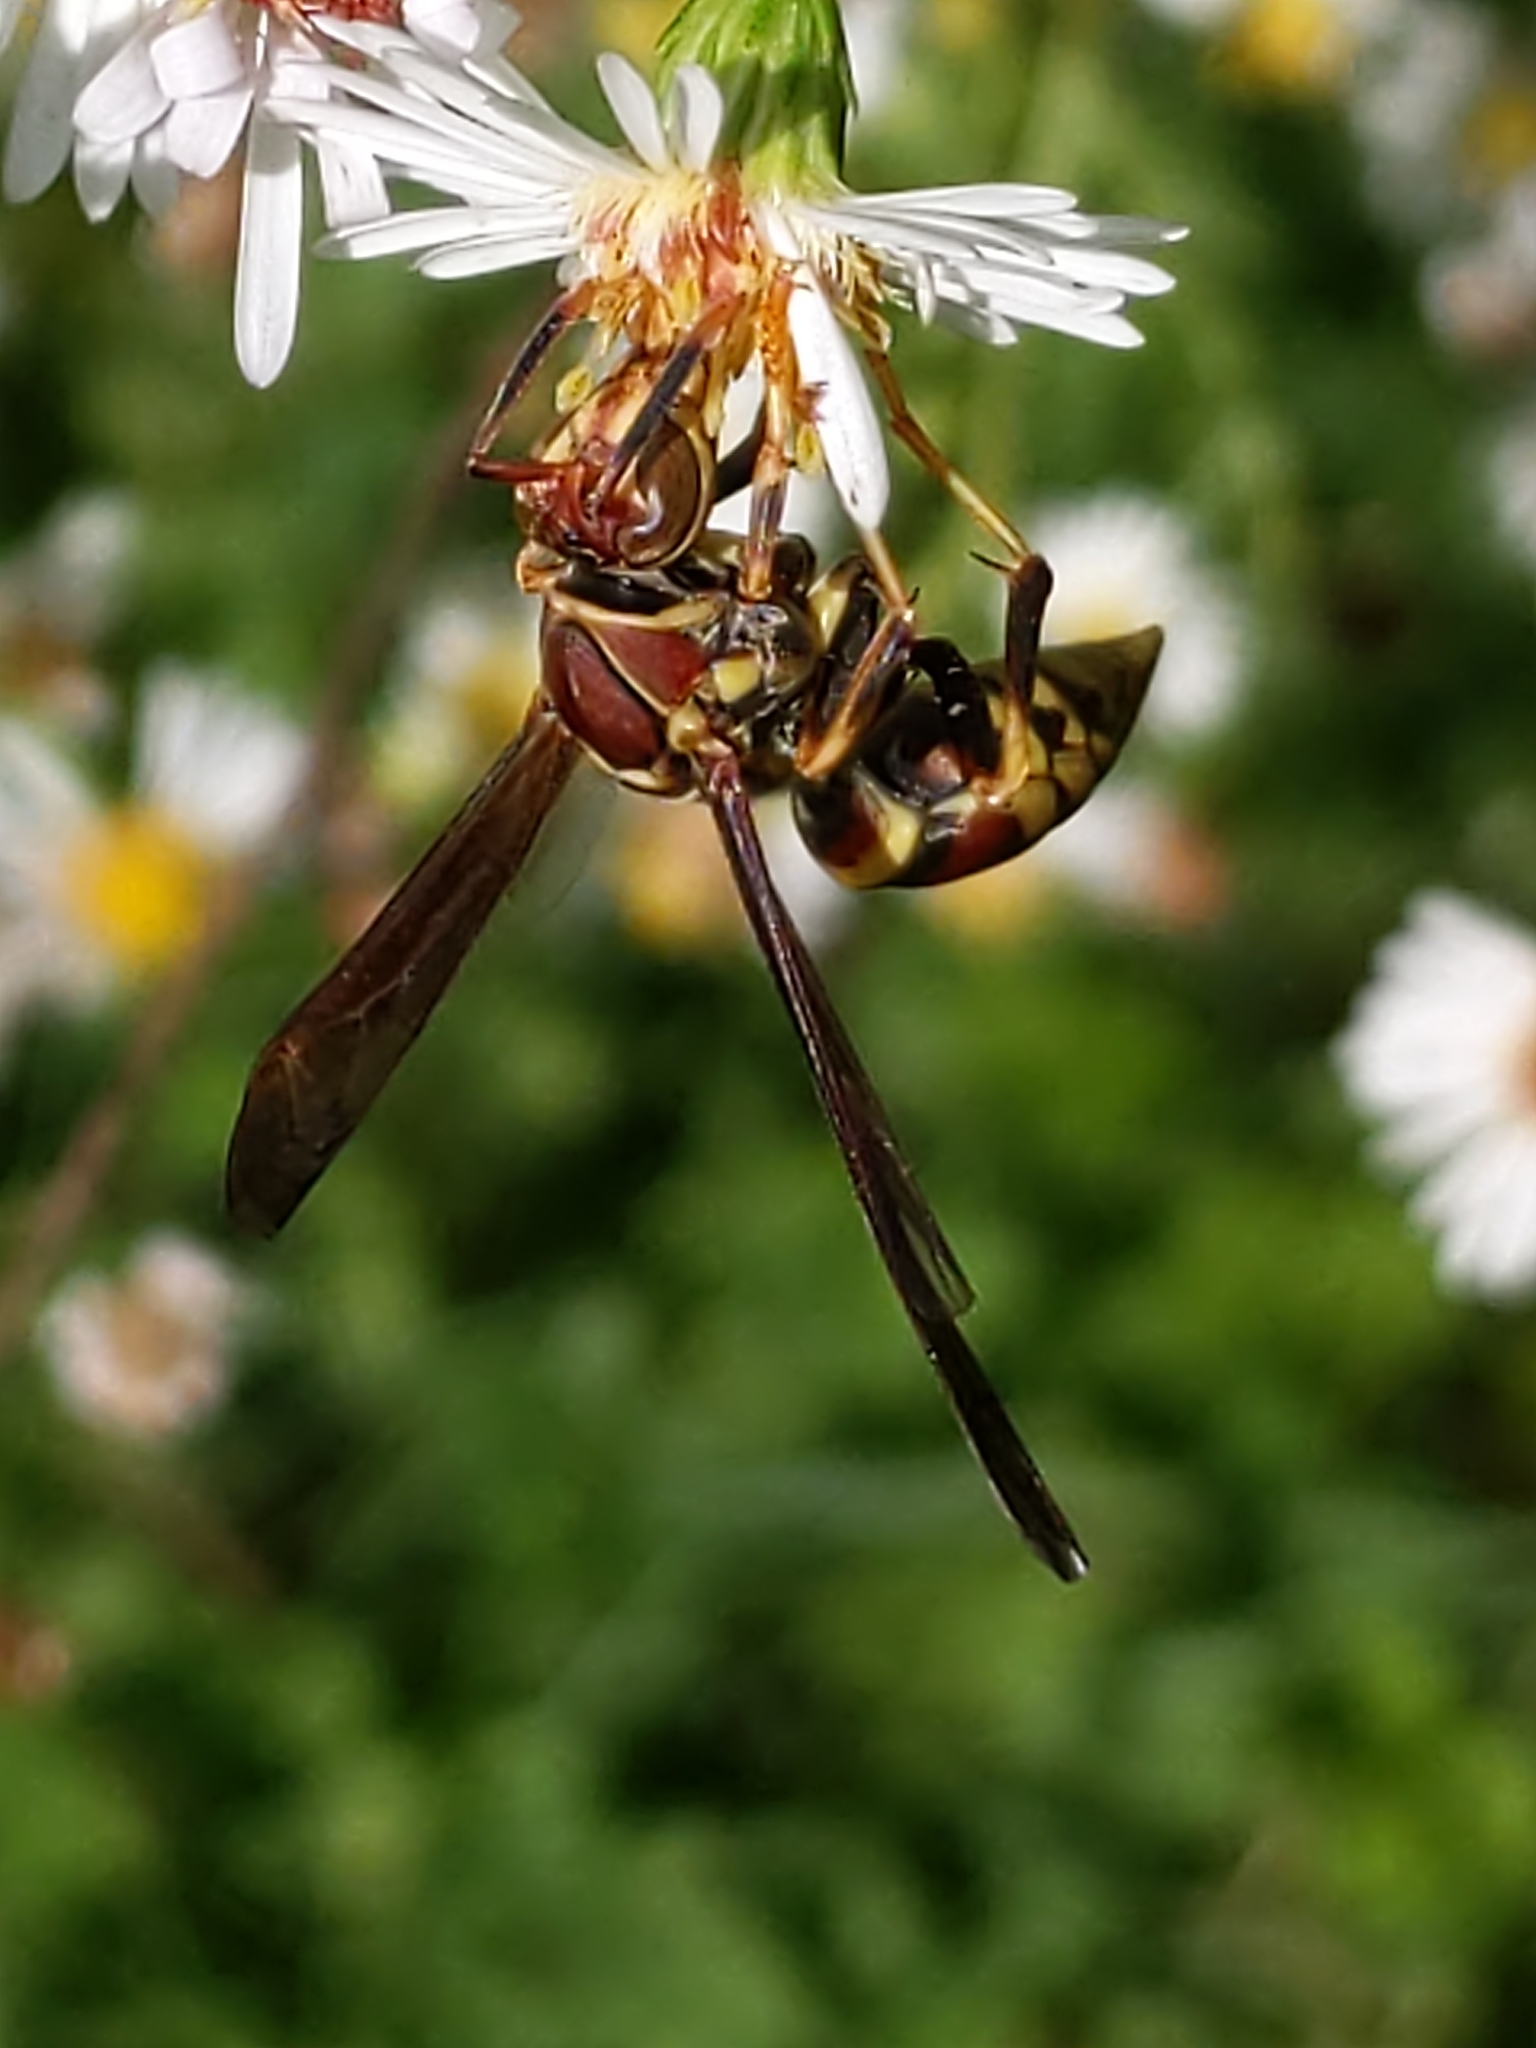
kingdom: Animalia
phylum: Arthropoda
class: Insecta
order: Hymenoptera
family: Eumenidae
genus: Polistes
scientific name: Polistes exclamans
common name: Paper wasp
